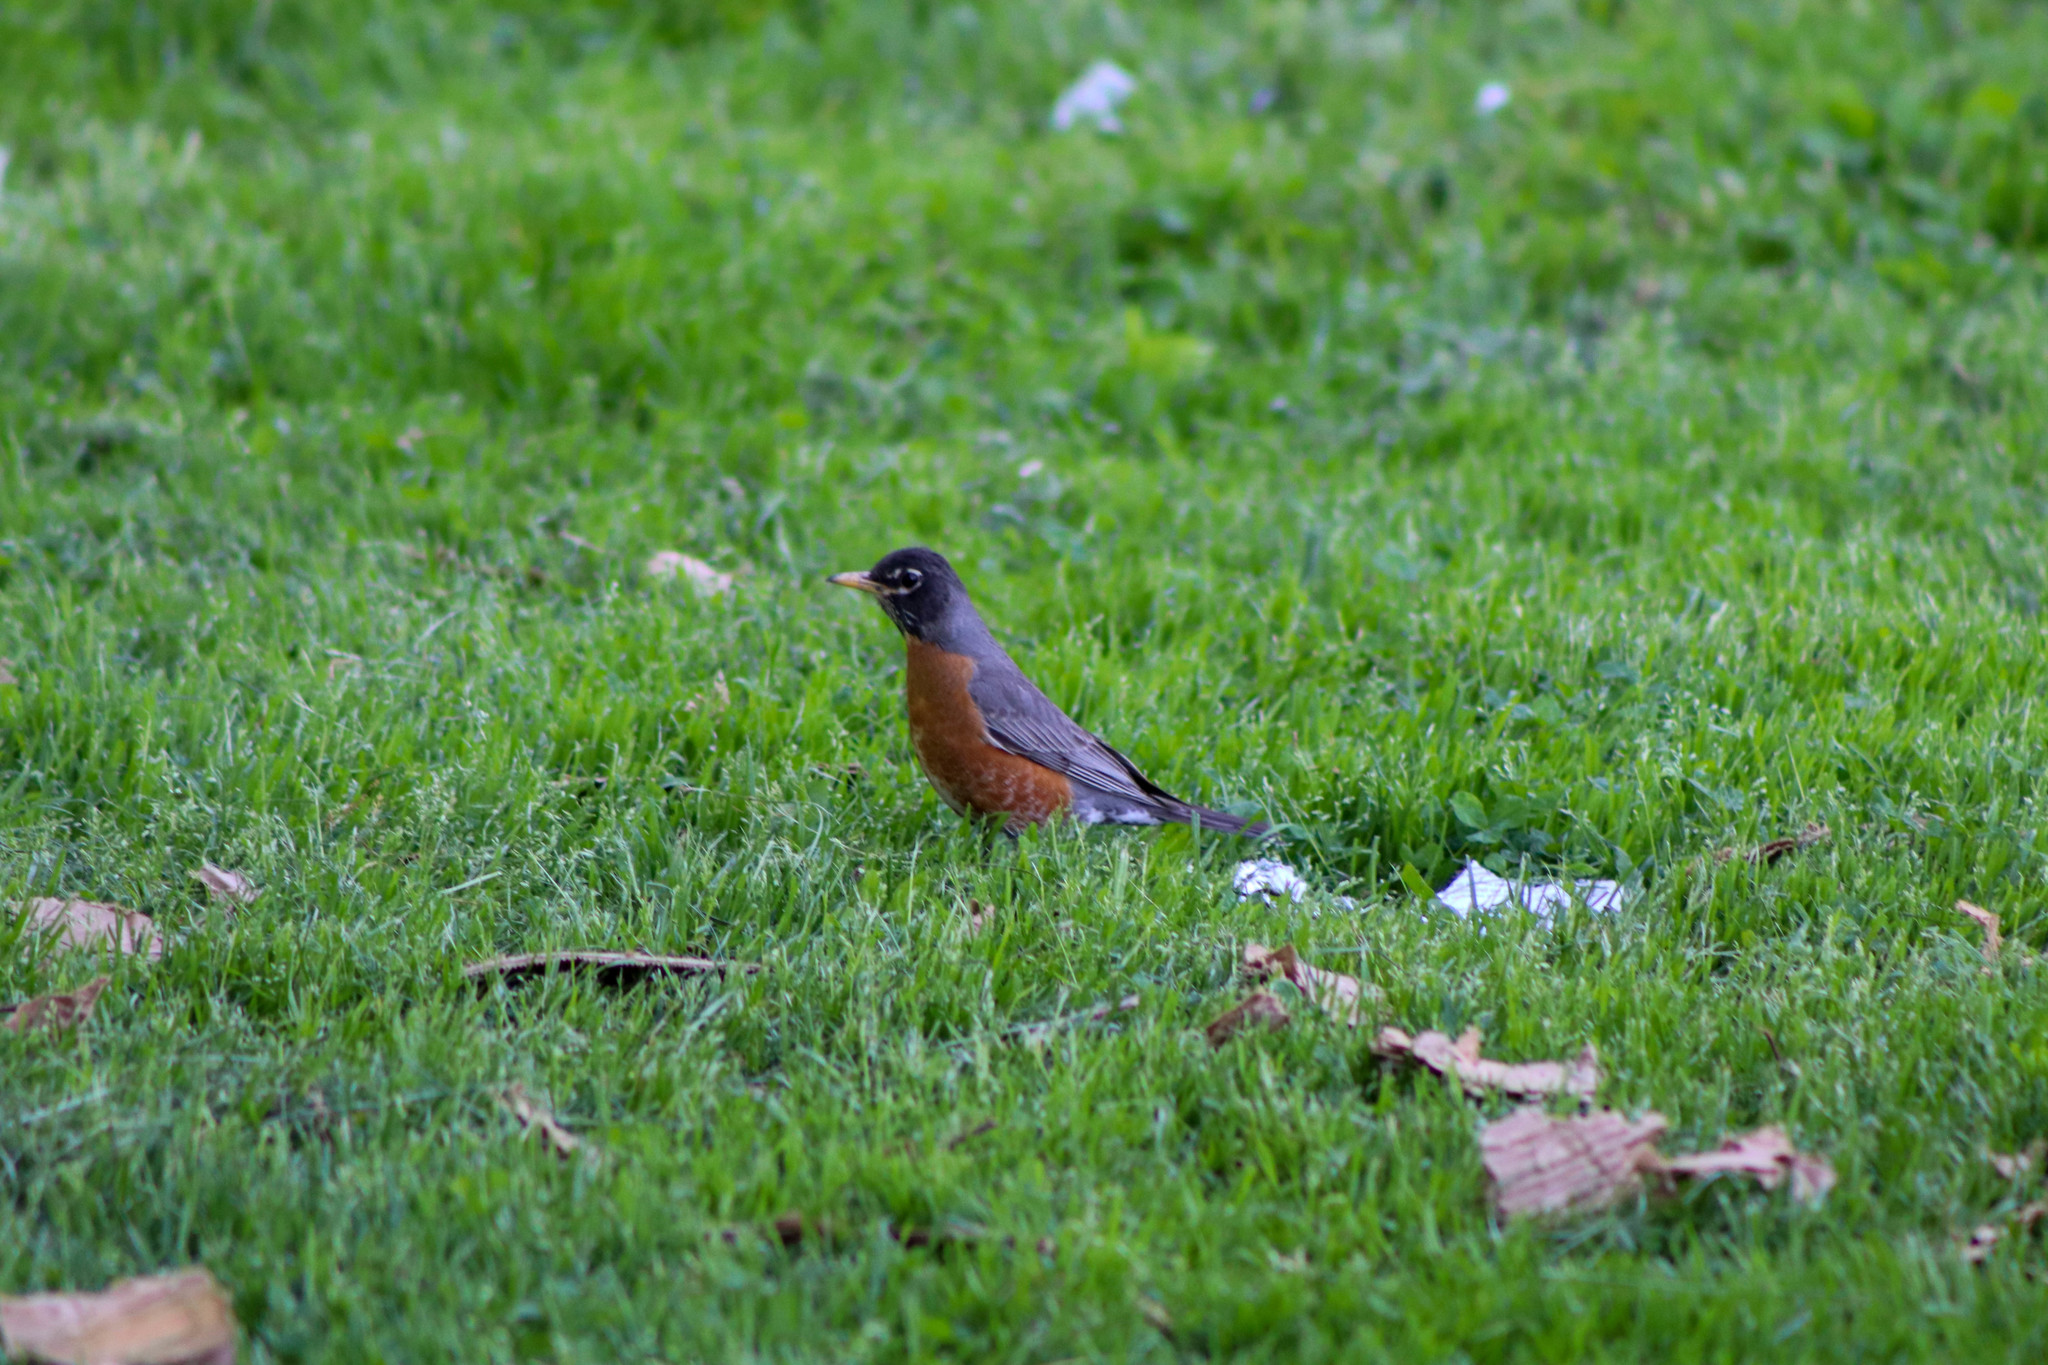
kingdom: Animalia
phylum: Chordata
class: Aves
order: Passeriformes
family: Turdidae
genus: Turdus
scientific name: Turdus migratorius
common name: American robin
